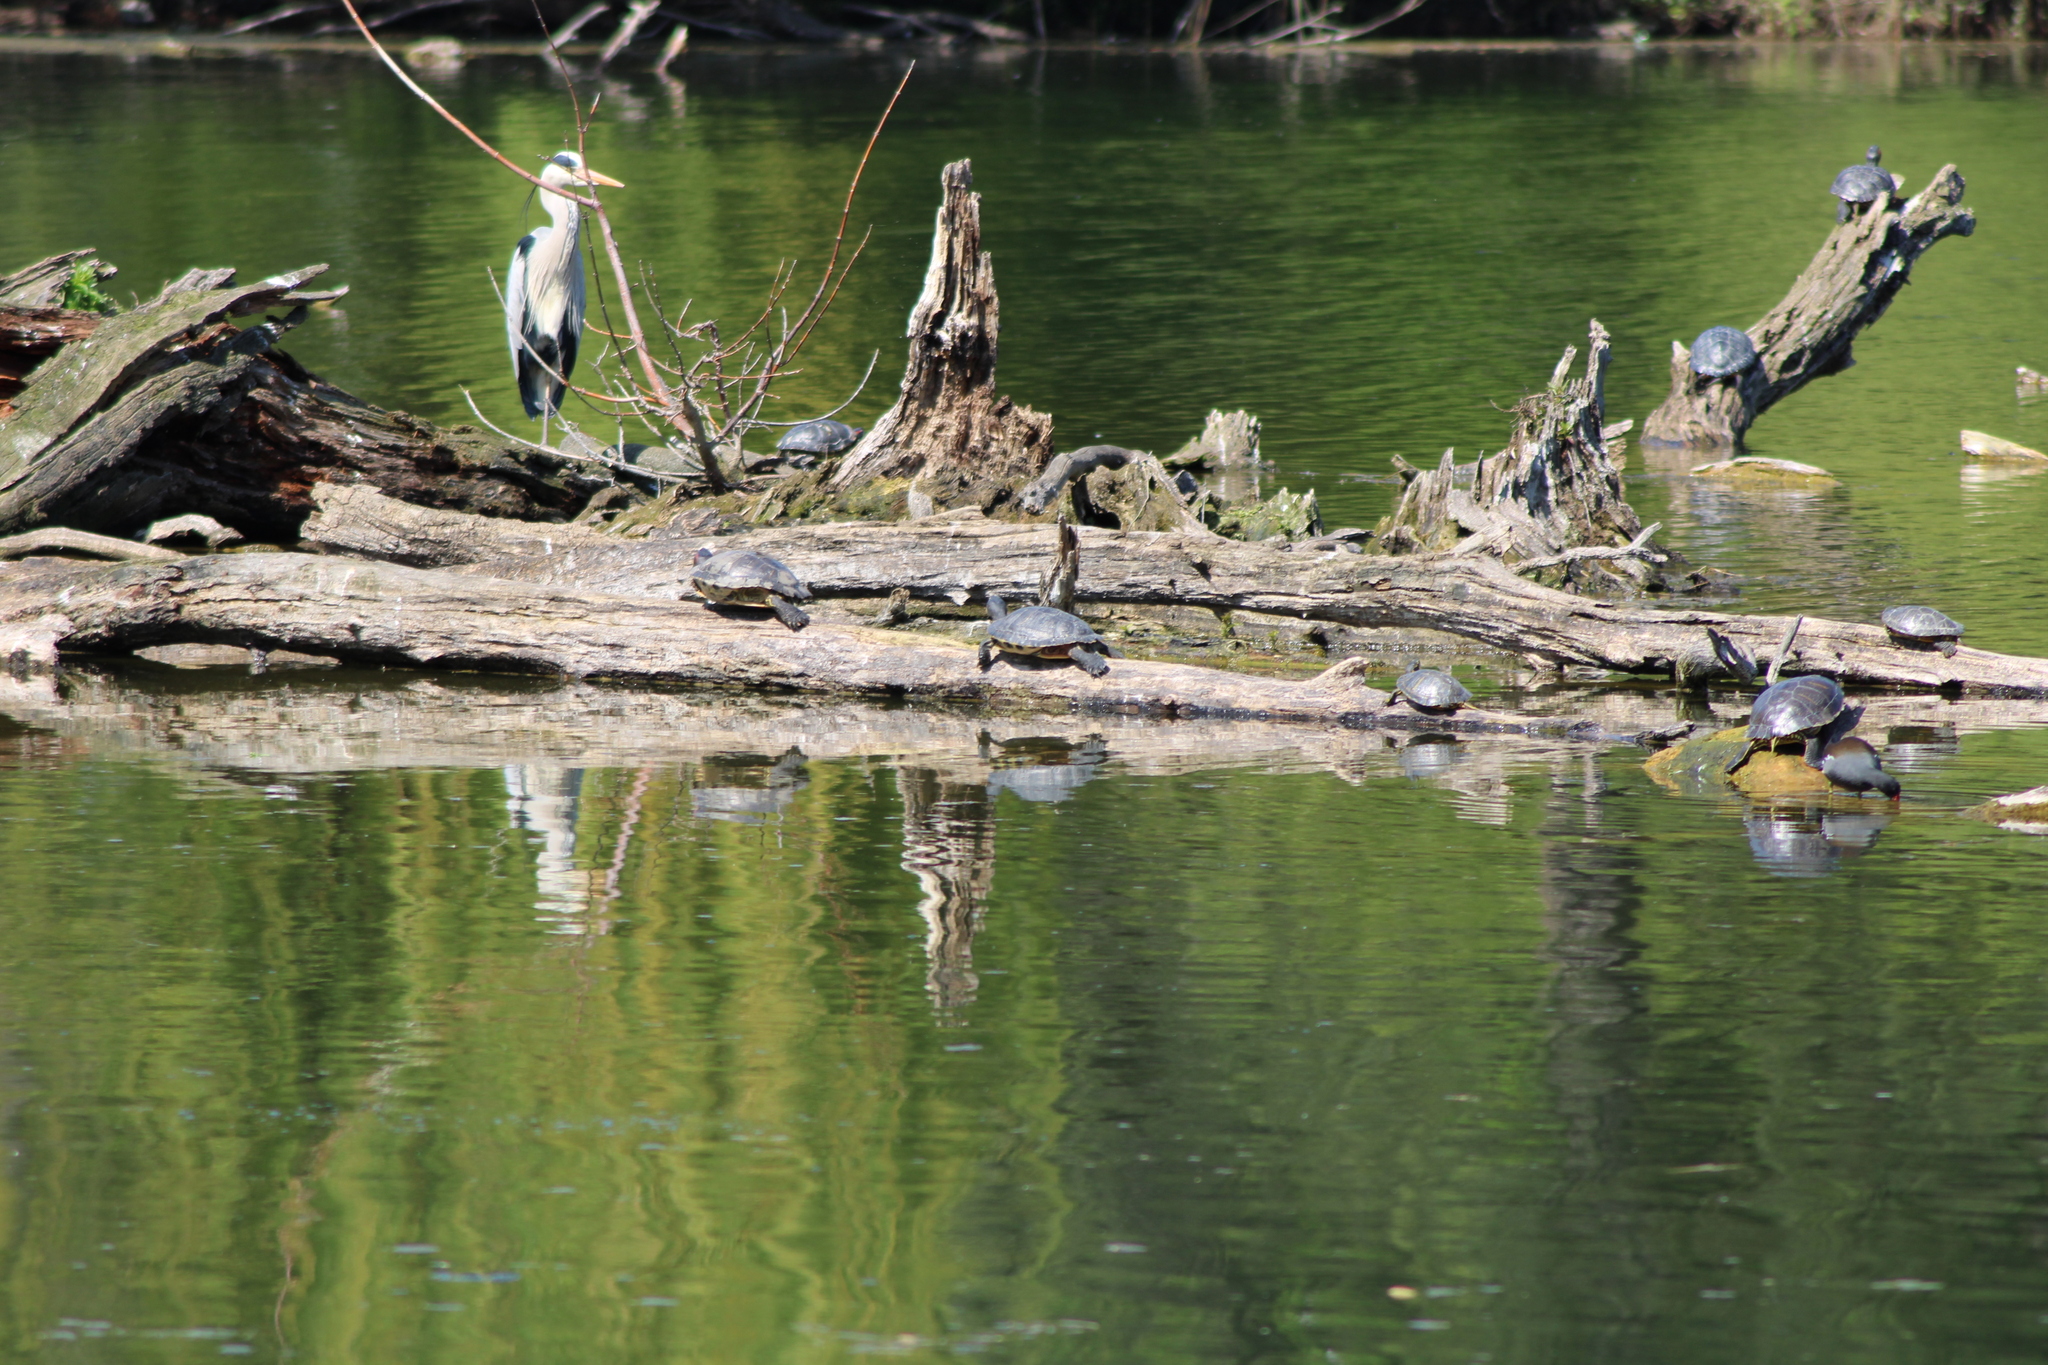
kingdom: Animalia
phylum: Chordata
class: Testudines
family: Emydidae
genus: Trachemys
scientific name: Trachemys scripta
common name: Slider
